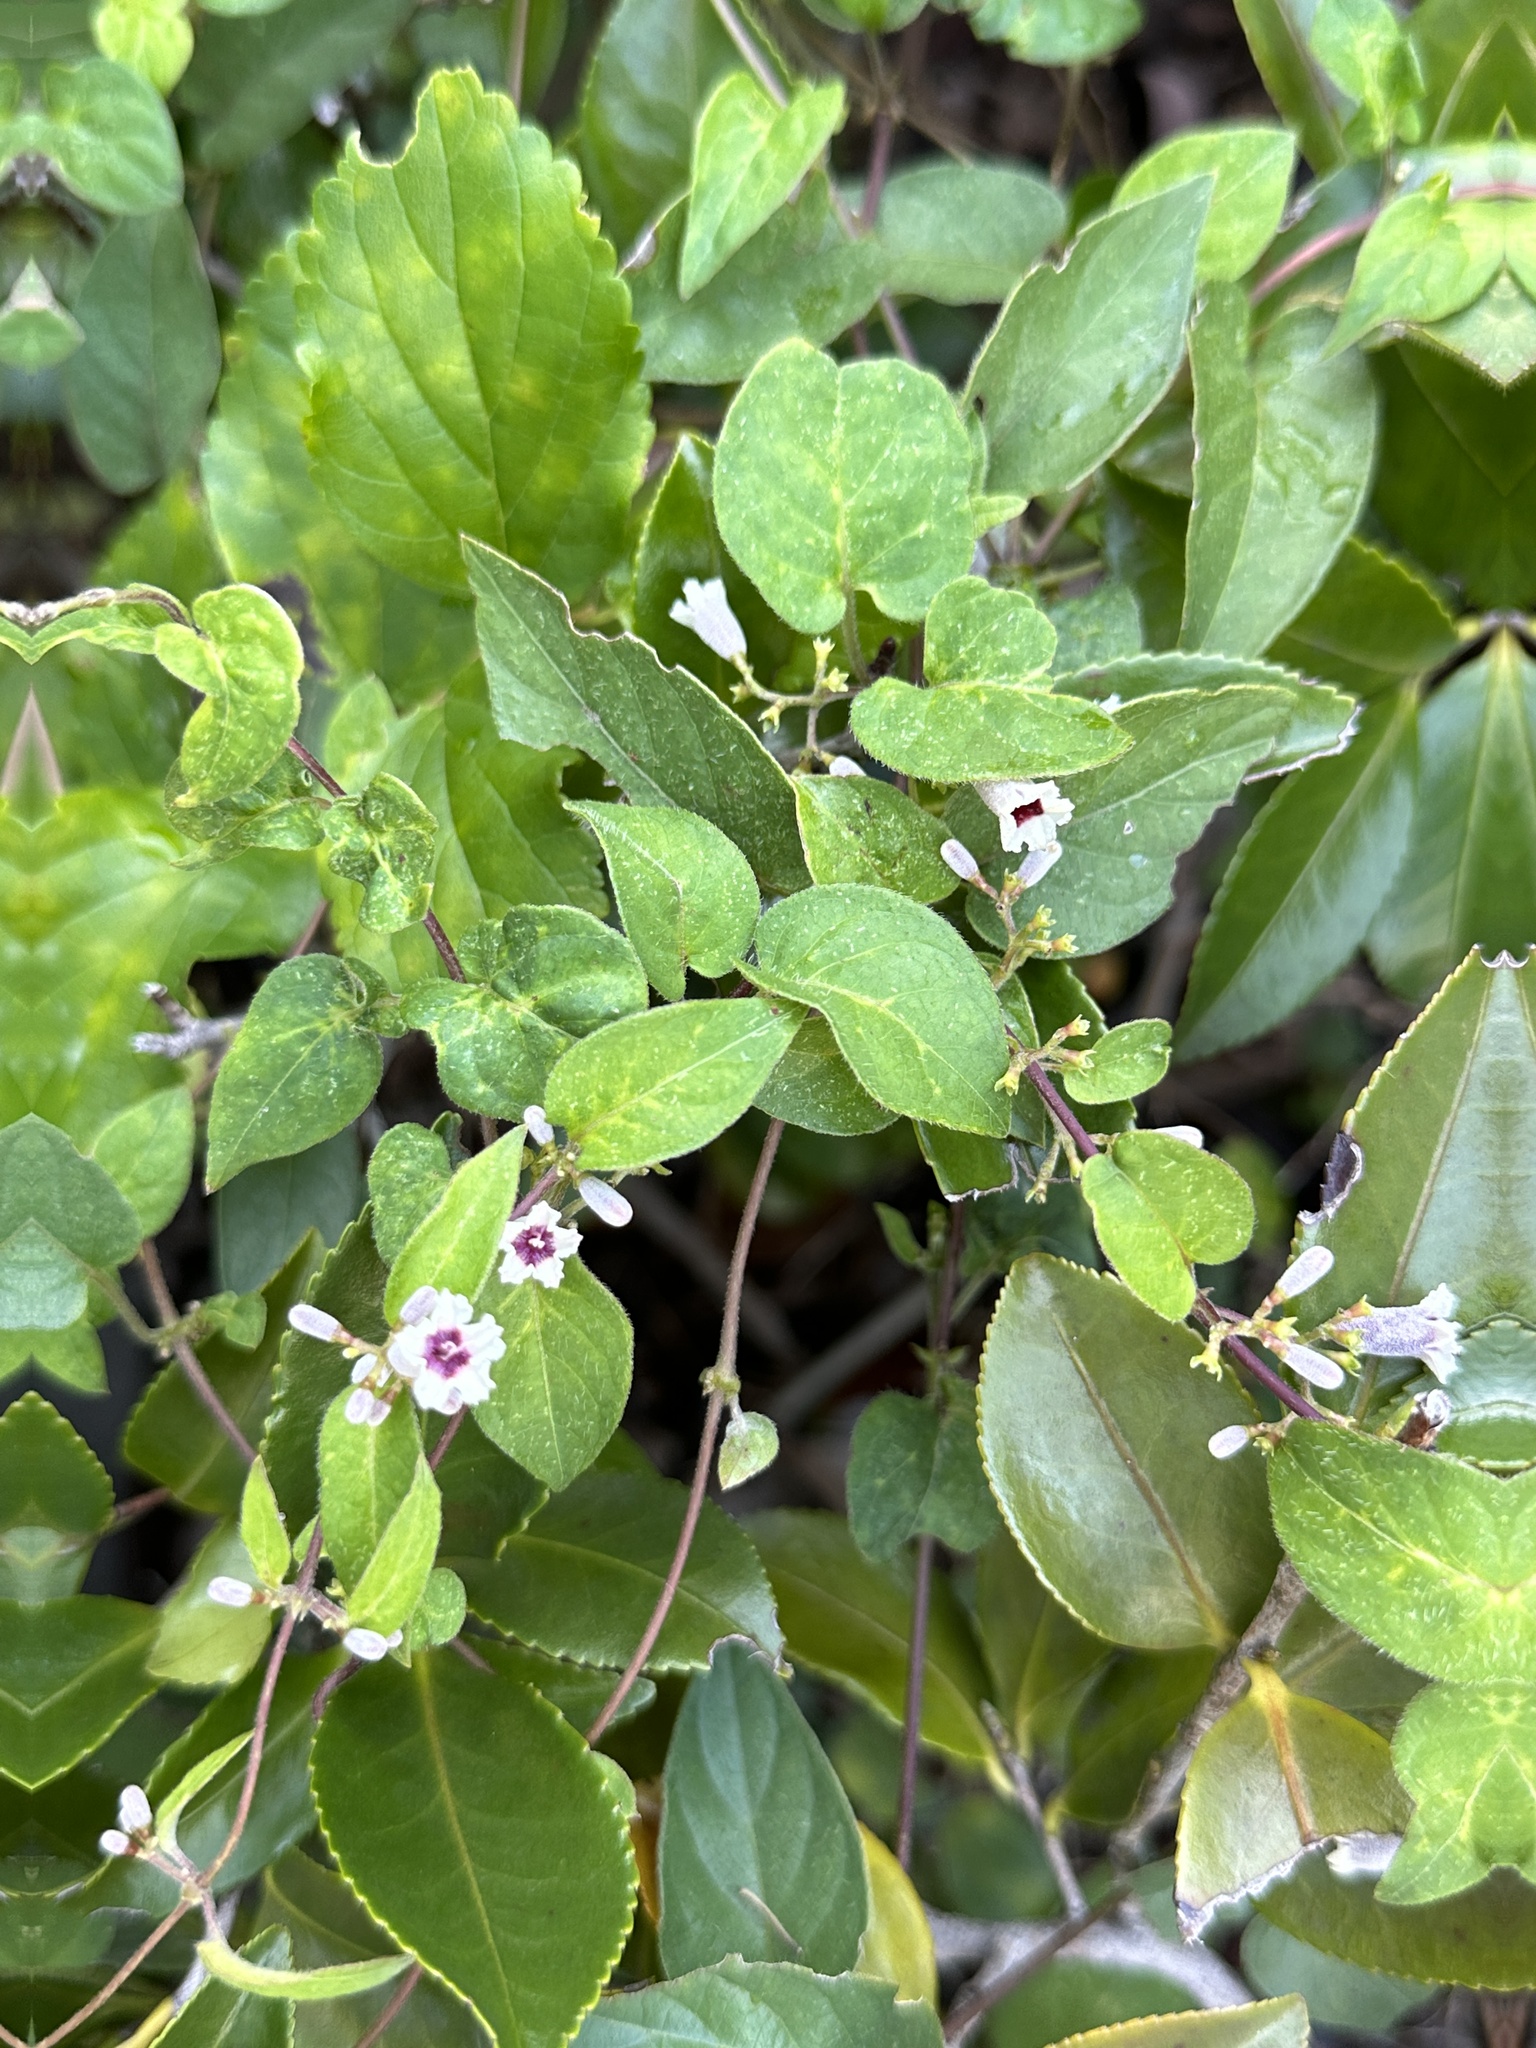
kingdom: Plantae
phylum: Tracheophyta
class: Magnoliopsida
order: Gentianales
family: Rubiaceae
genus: Paederia
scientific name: Paederia foetida
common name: Stinkvine
